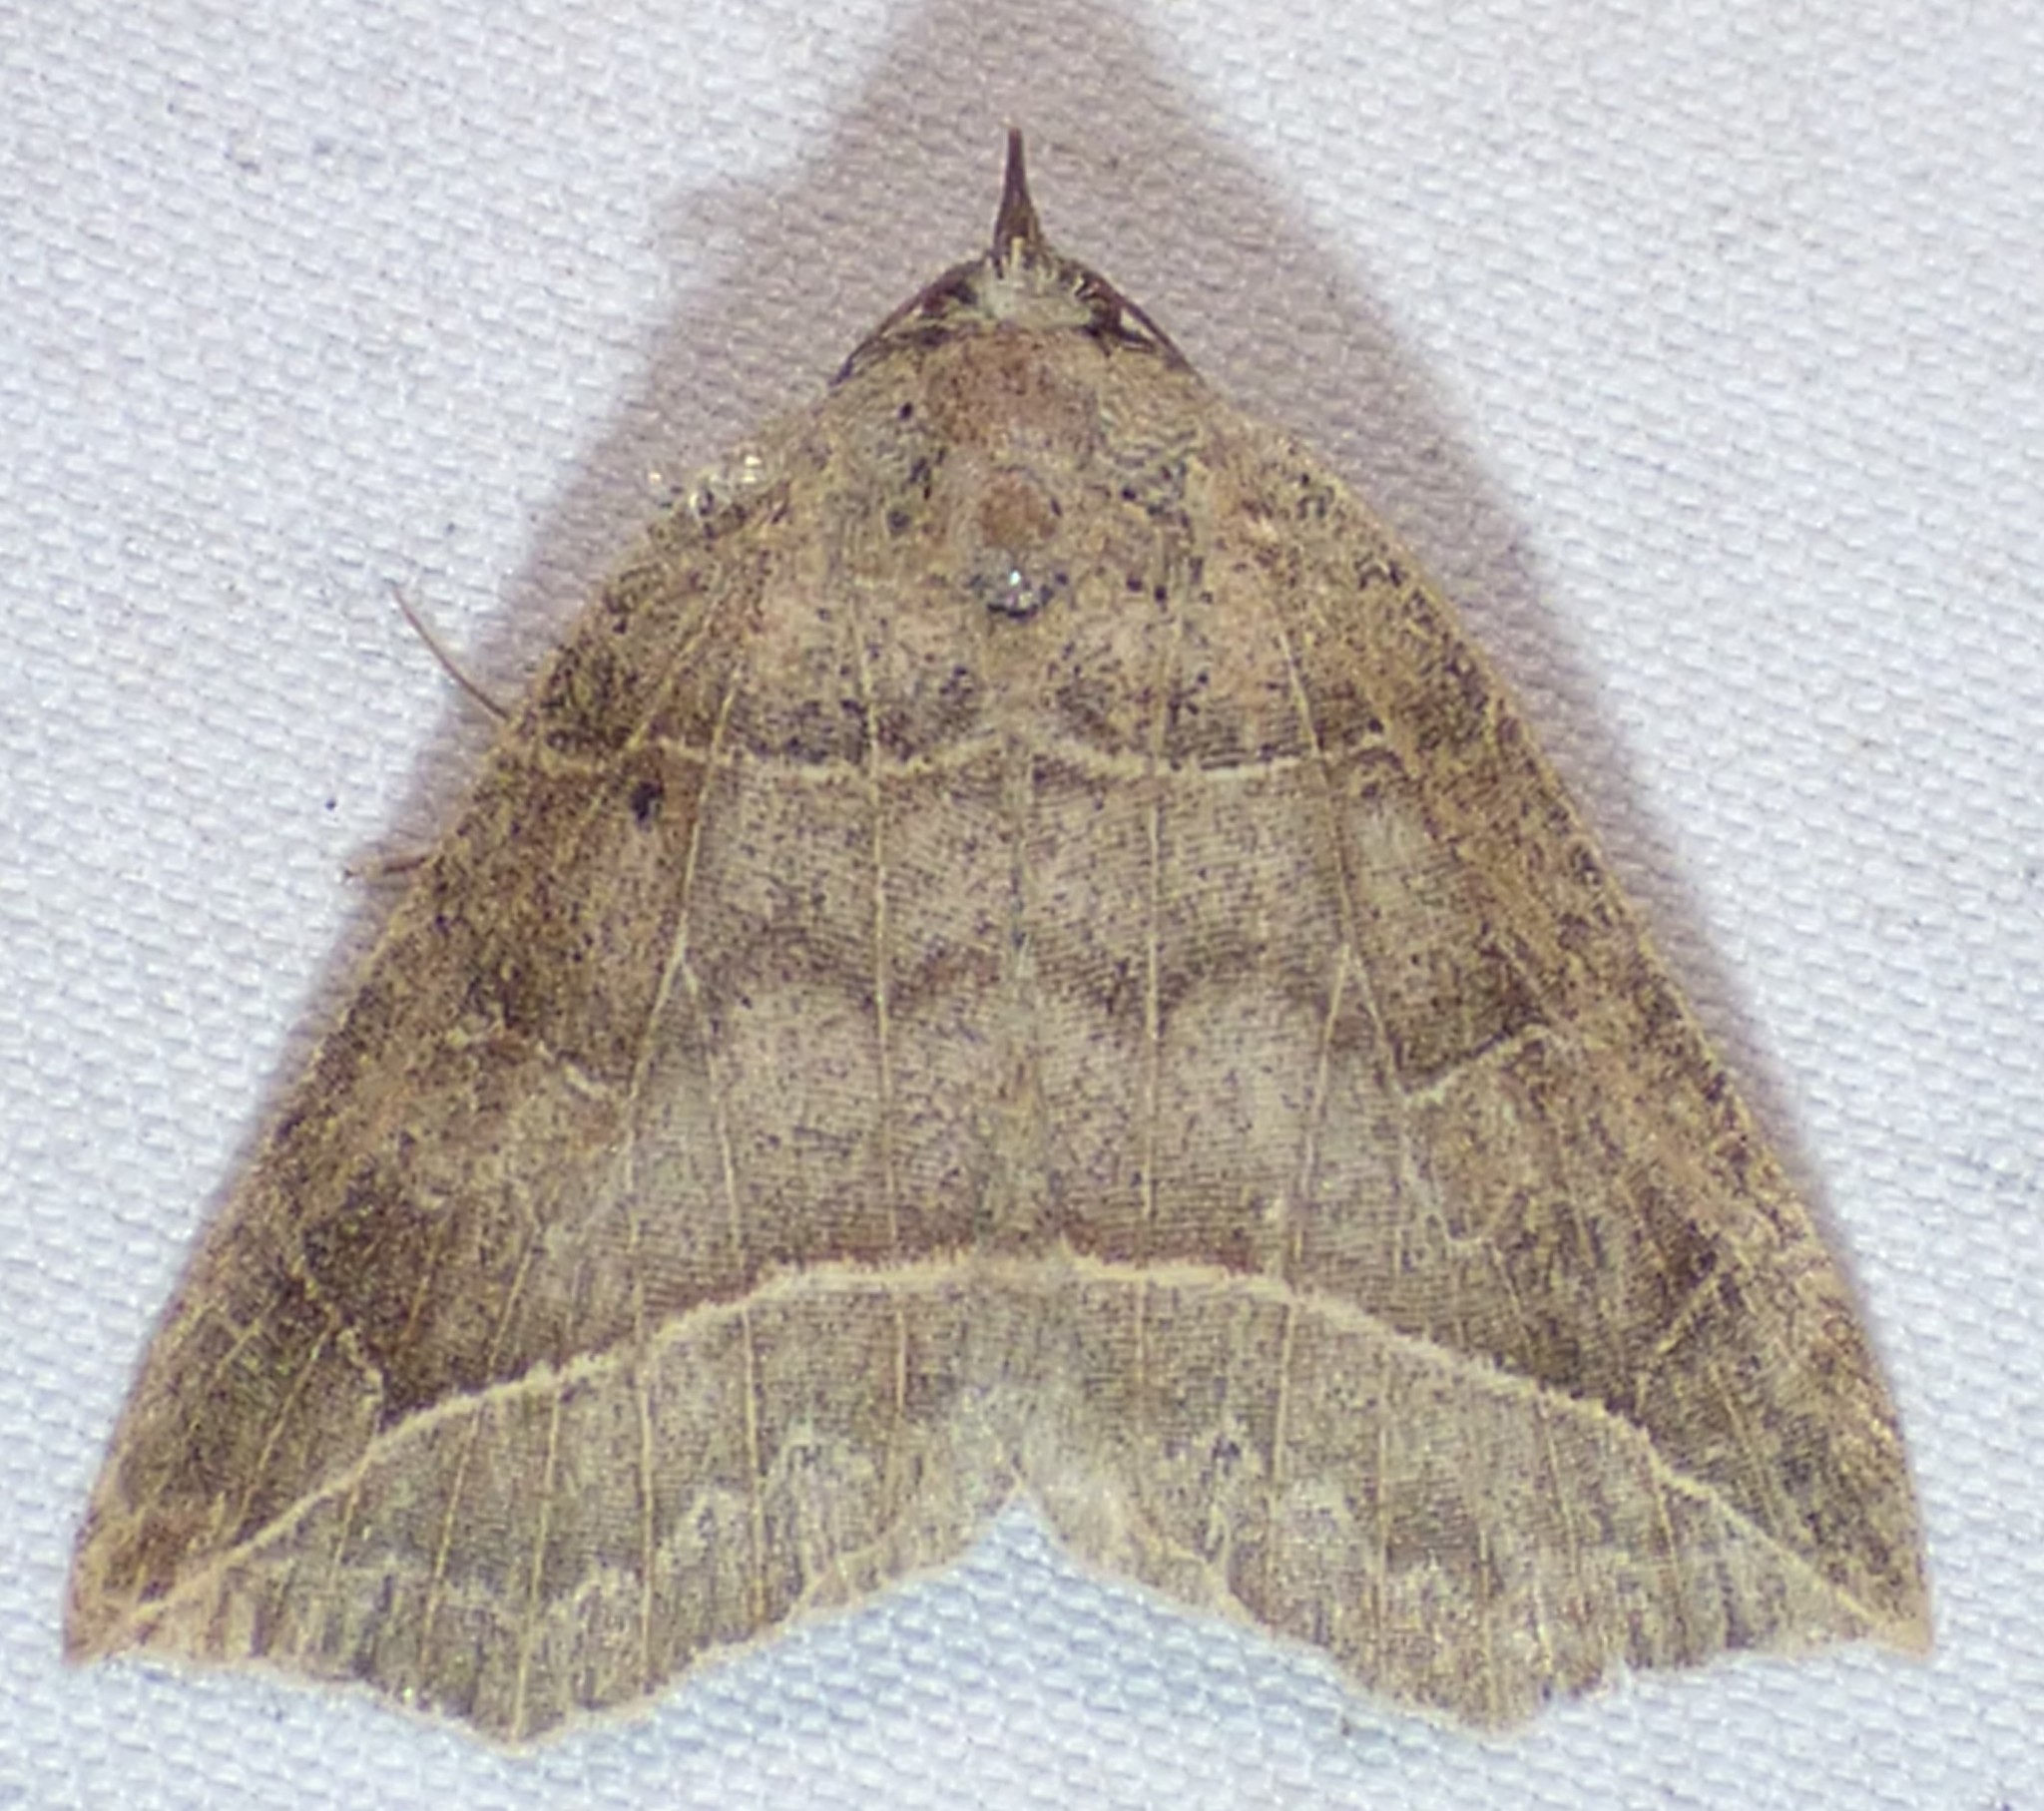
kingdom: Animalia
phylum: Arthropoda
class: Insecta
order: Lepidoptera
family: Erebidae
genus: Isogona
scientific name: Isogona tenuis
